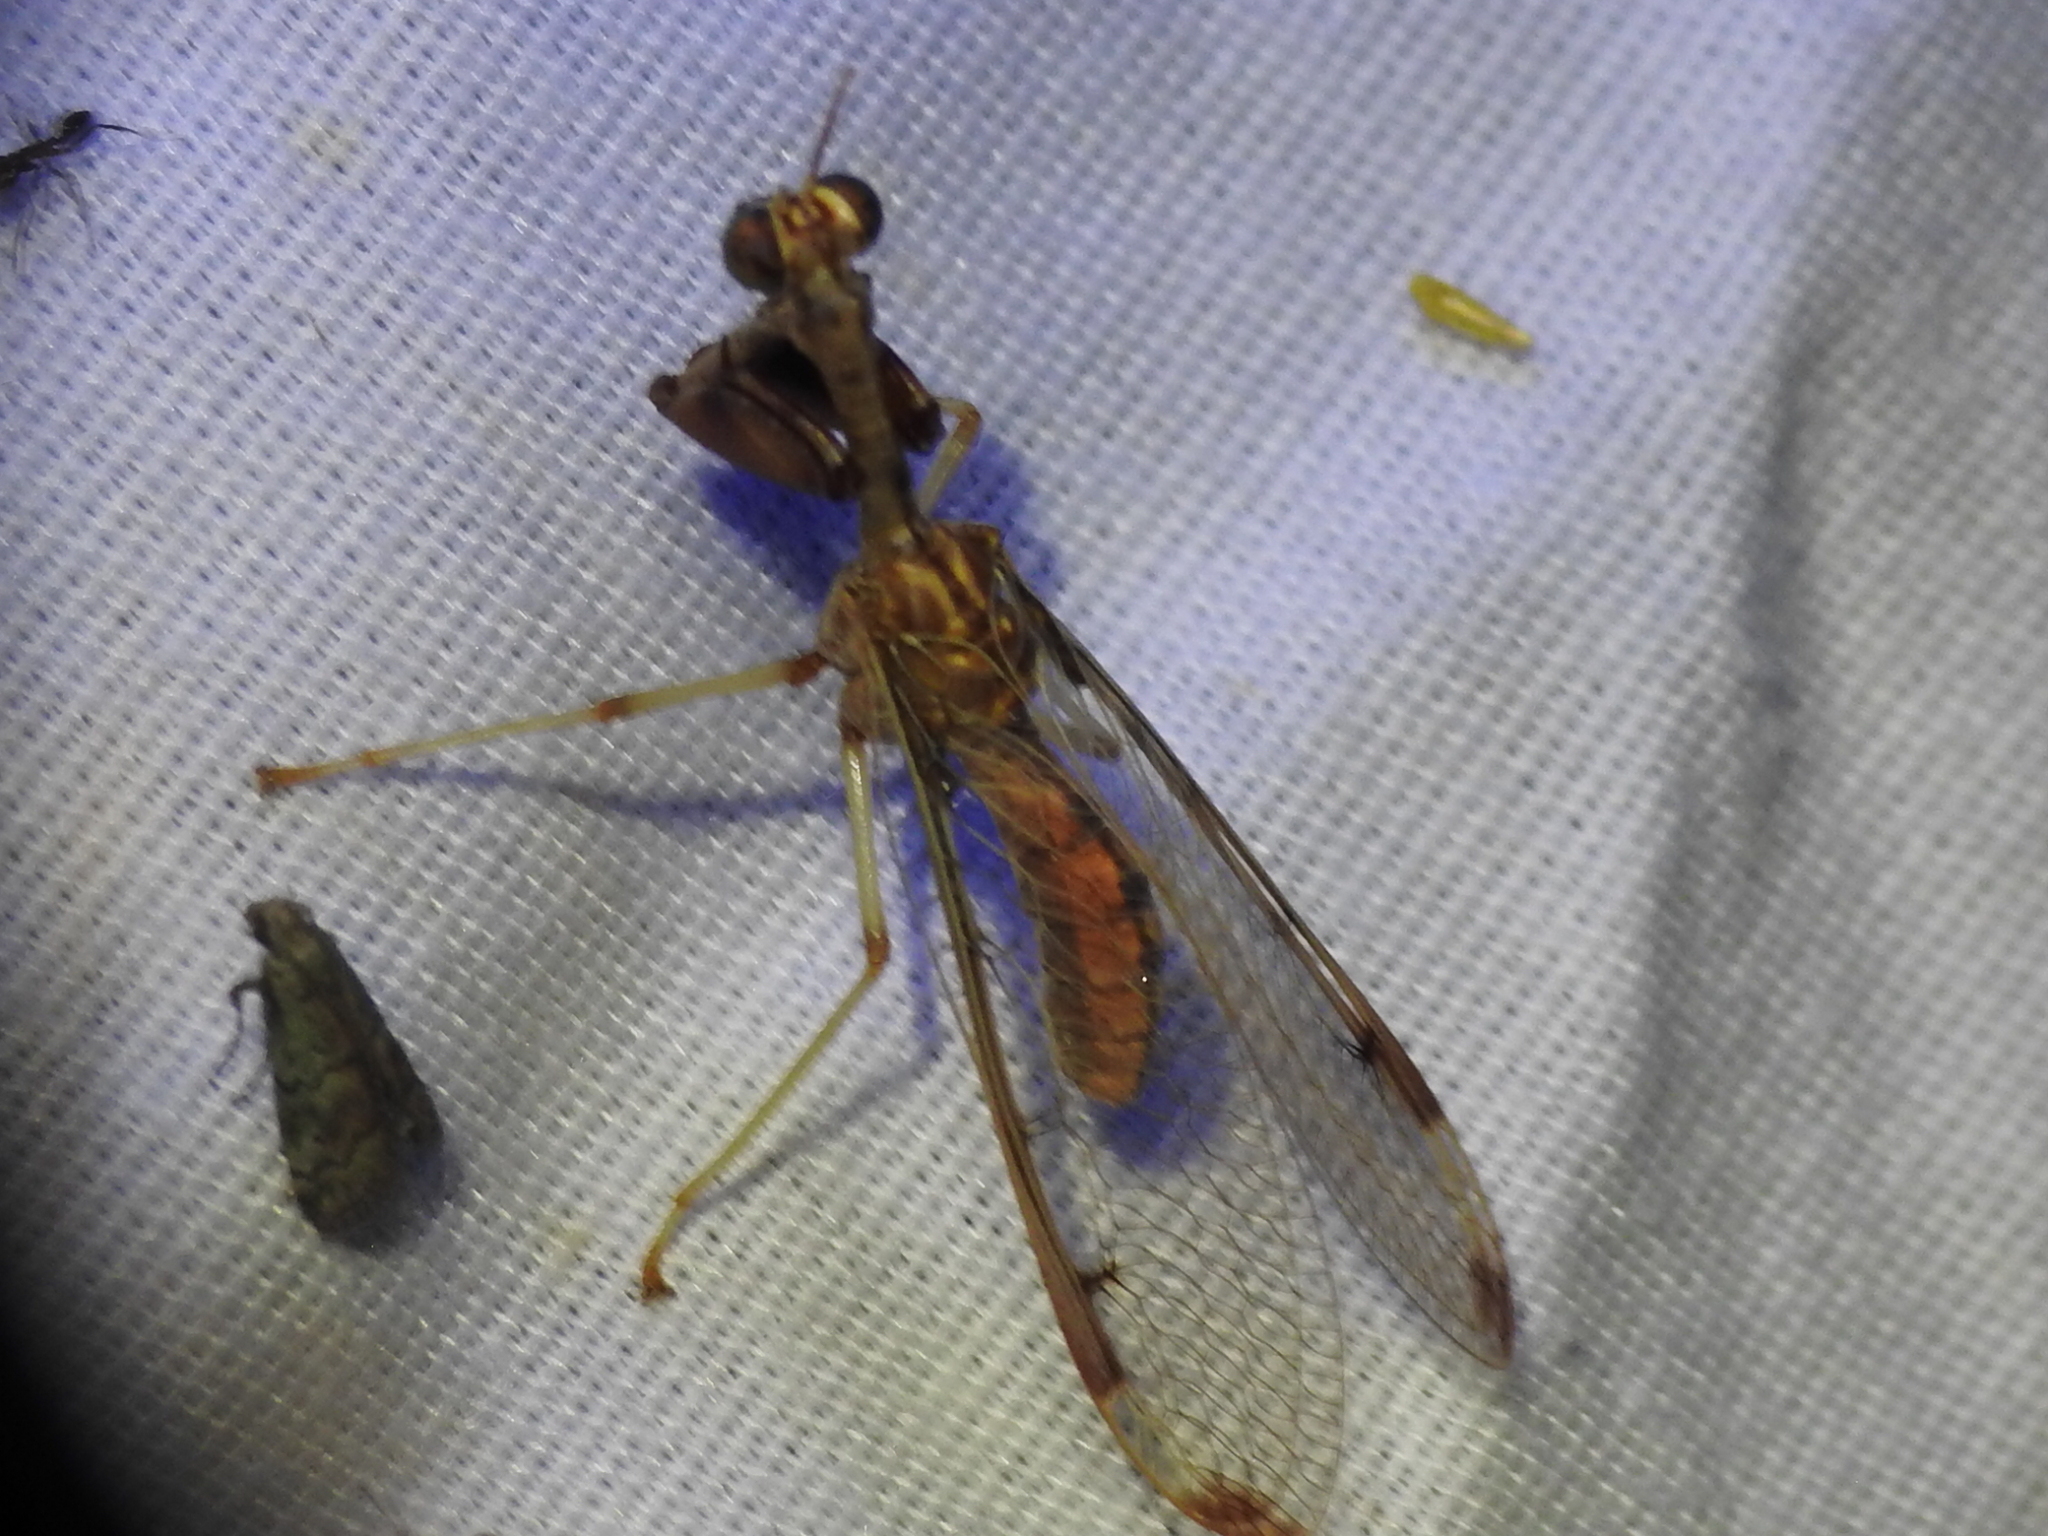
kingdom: Animalia
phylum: Arthropoda
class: Insecta
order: Neuroptera
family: Mantispidae
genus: Dicromantispa
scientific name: Dicromantispa interrupta
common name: Four-spotted mantidfly
